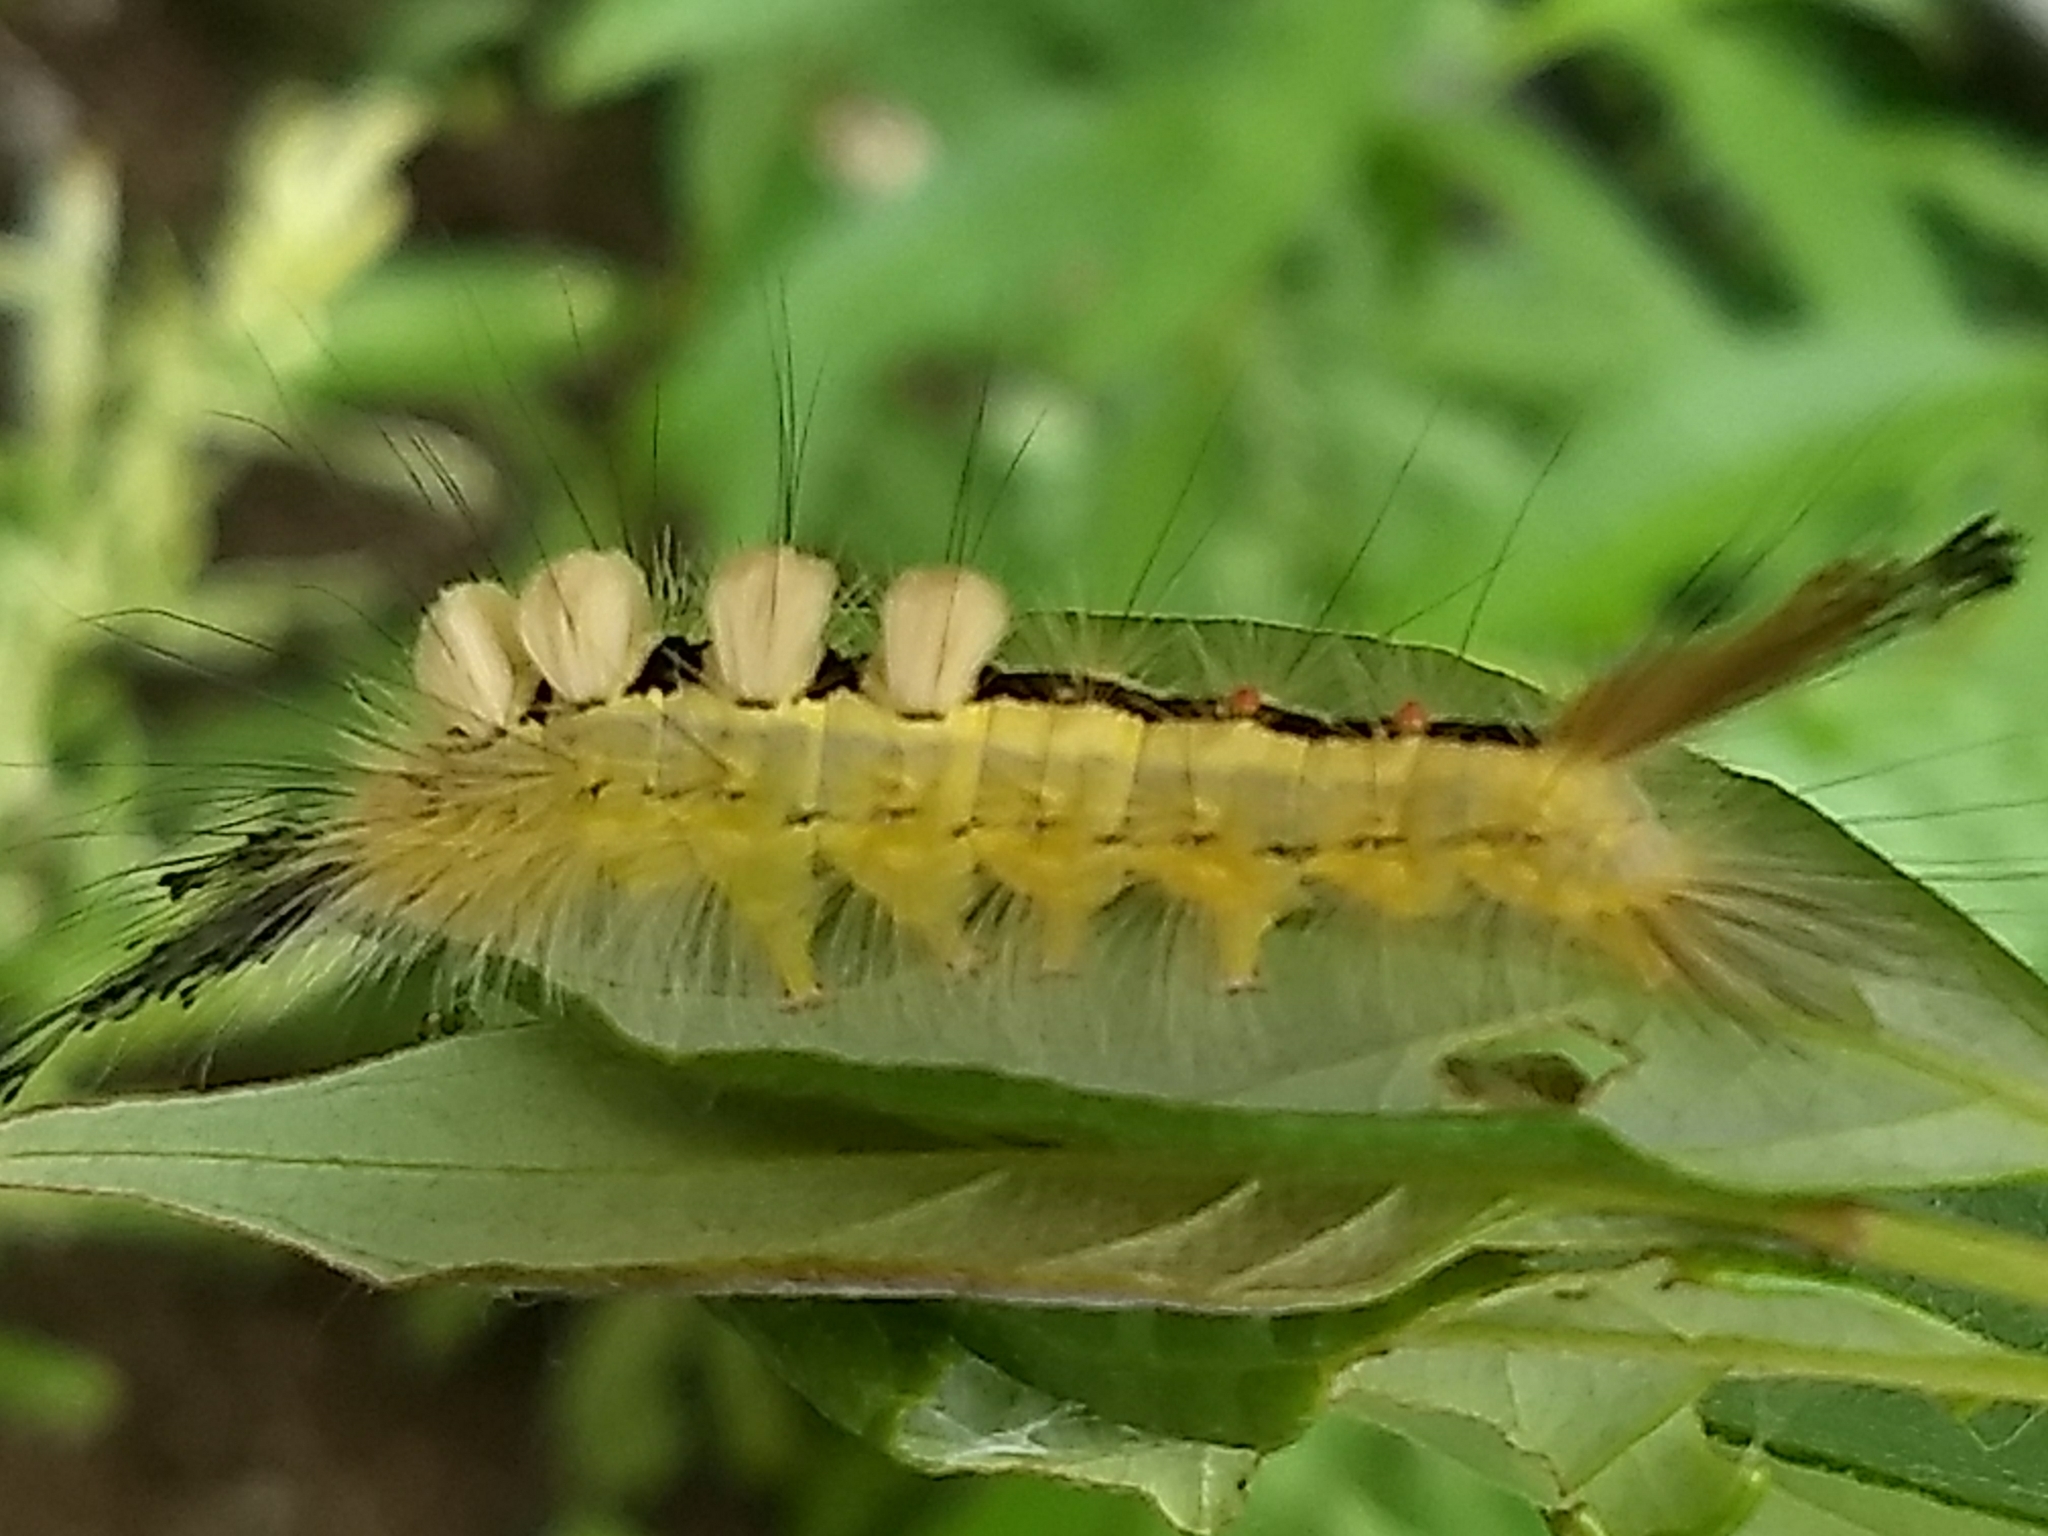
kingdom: Animalia
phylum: Arthropoda
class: Insecta
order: Lepidoptera
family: Erebidae
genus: Orgyia
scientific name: Orgyia leucostigma
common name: White-marked tussock moth
